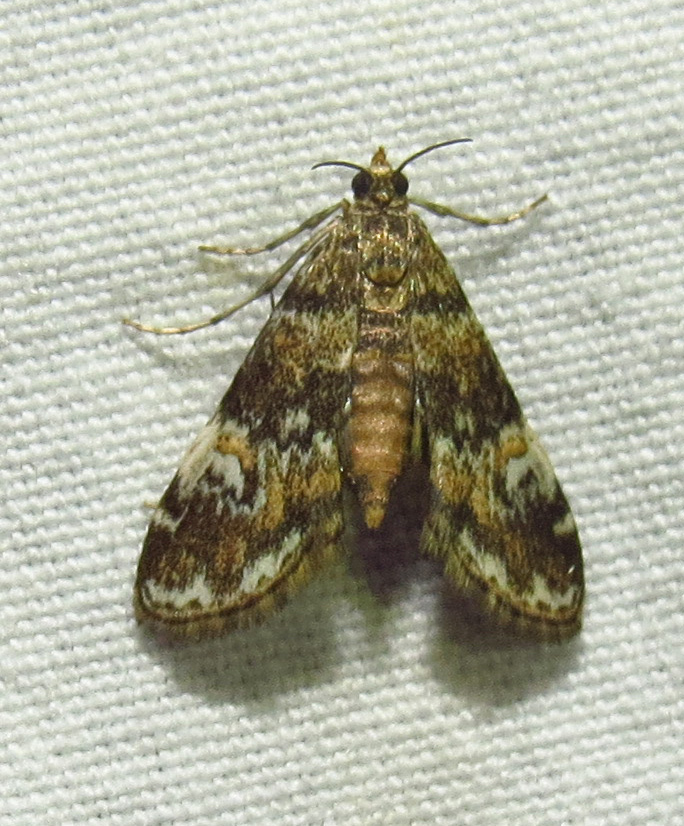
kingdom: Animalia
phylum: Arthropoda
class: Insecta
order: Lepidoptera
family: Crambidae
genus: Elophila
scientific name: Elophila obliteralis
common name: Waterlily leafcutter moth
